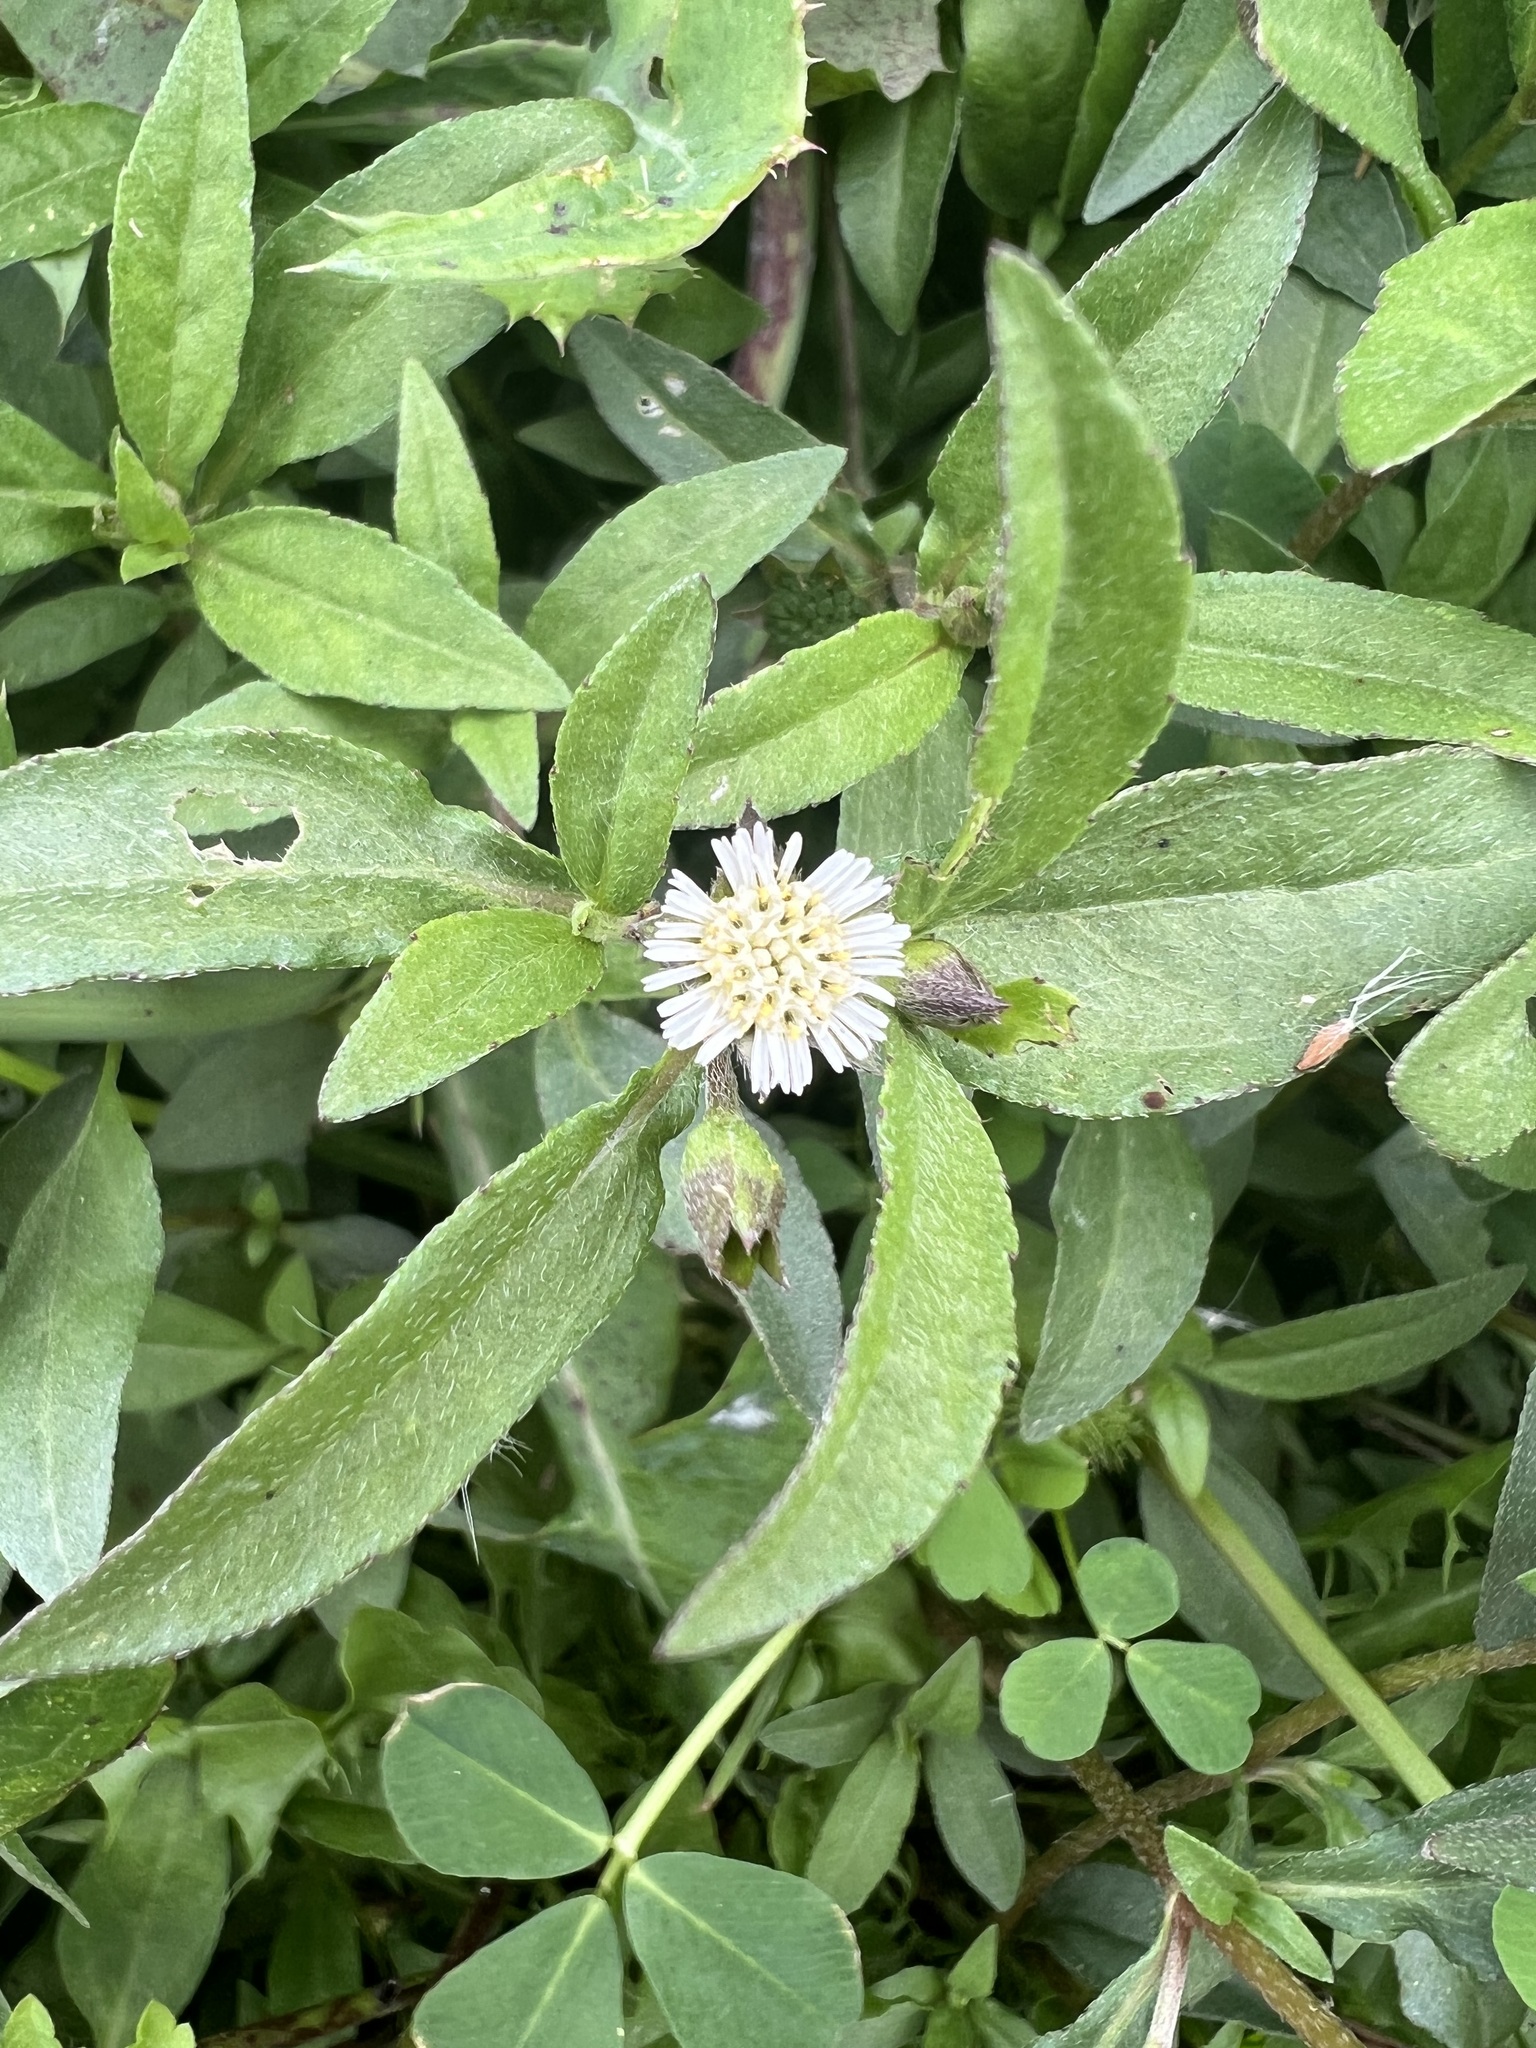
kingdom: Plantae
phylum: Tracheophyta
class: Magnoliopsida
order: Asterales
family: Asteraceae
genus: Eclipta
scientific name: Eclipta prostrata
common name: False daisy
